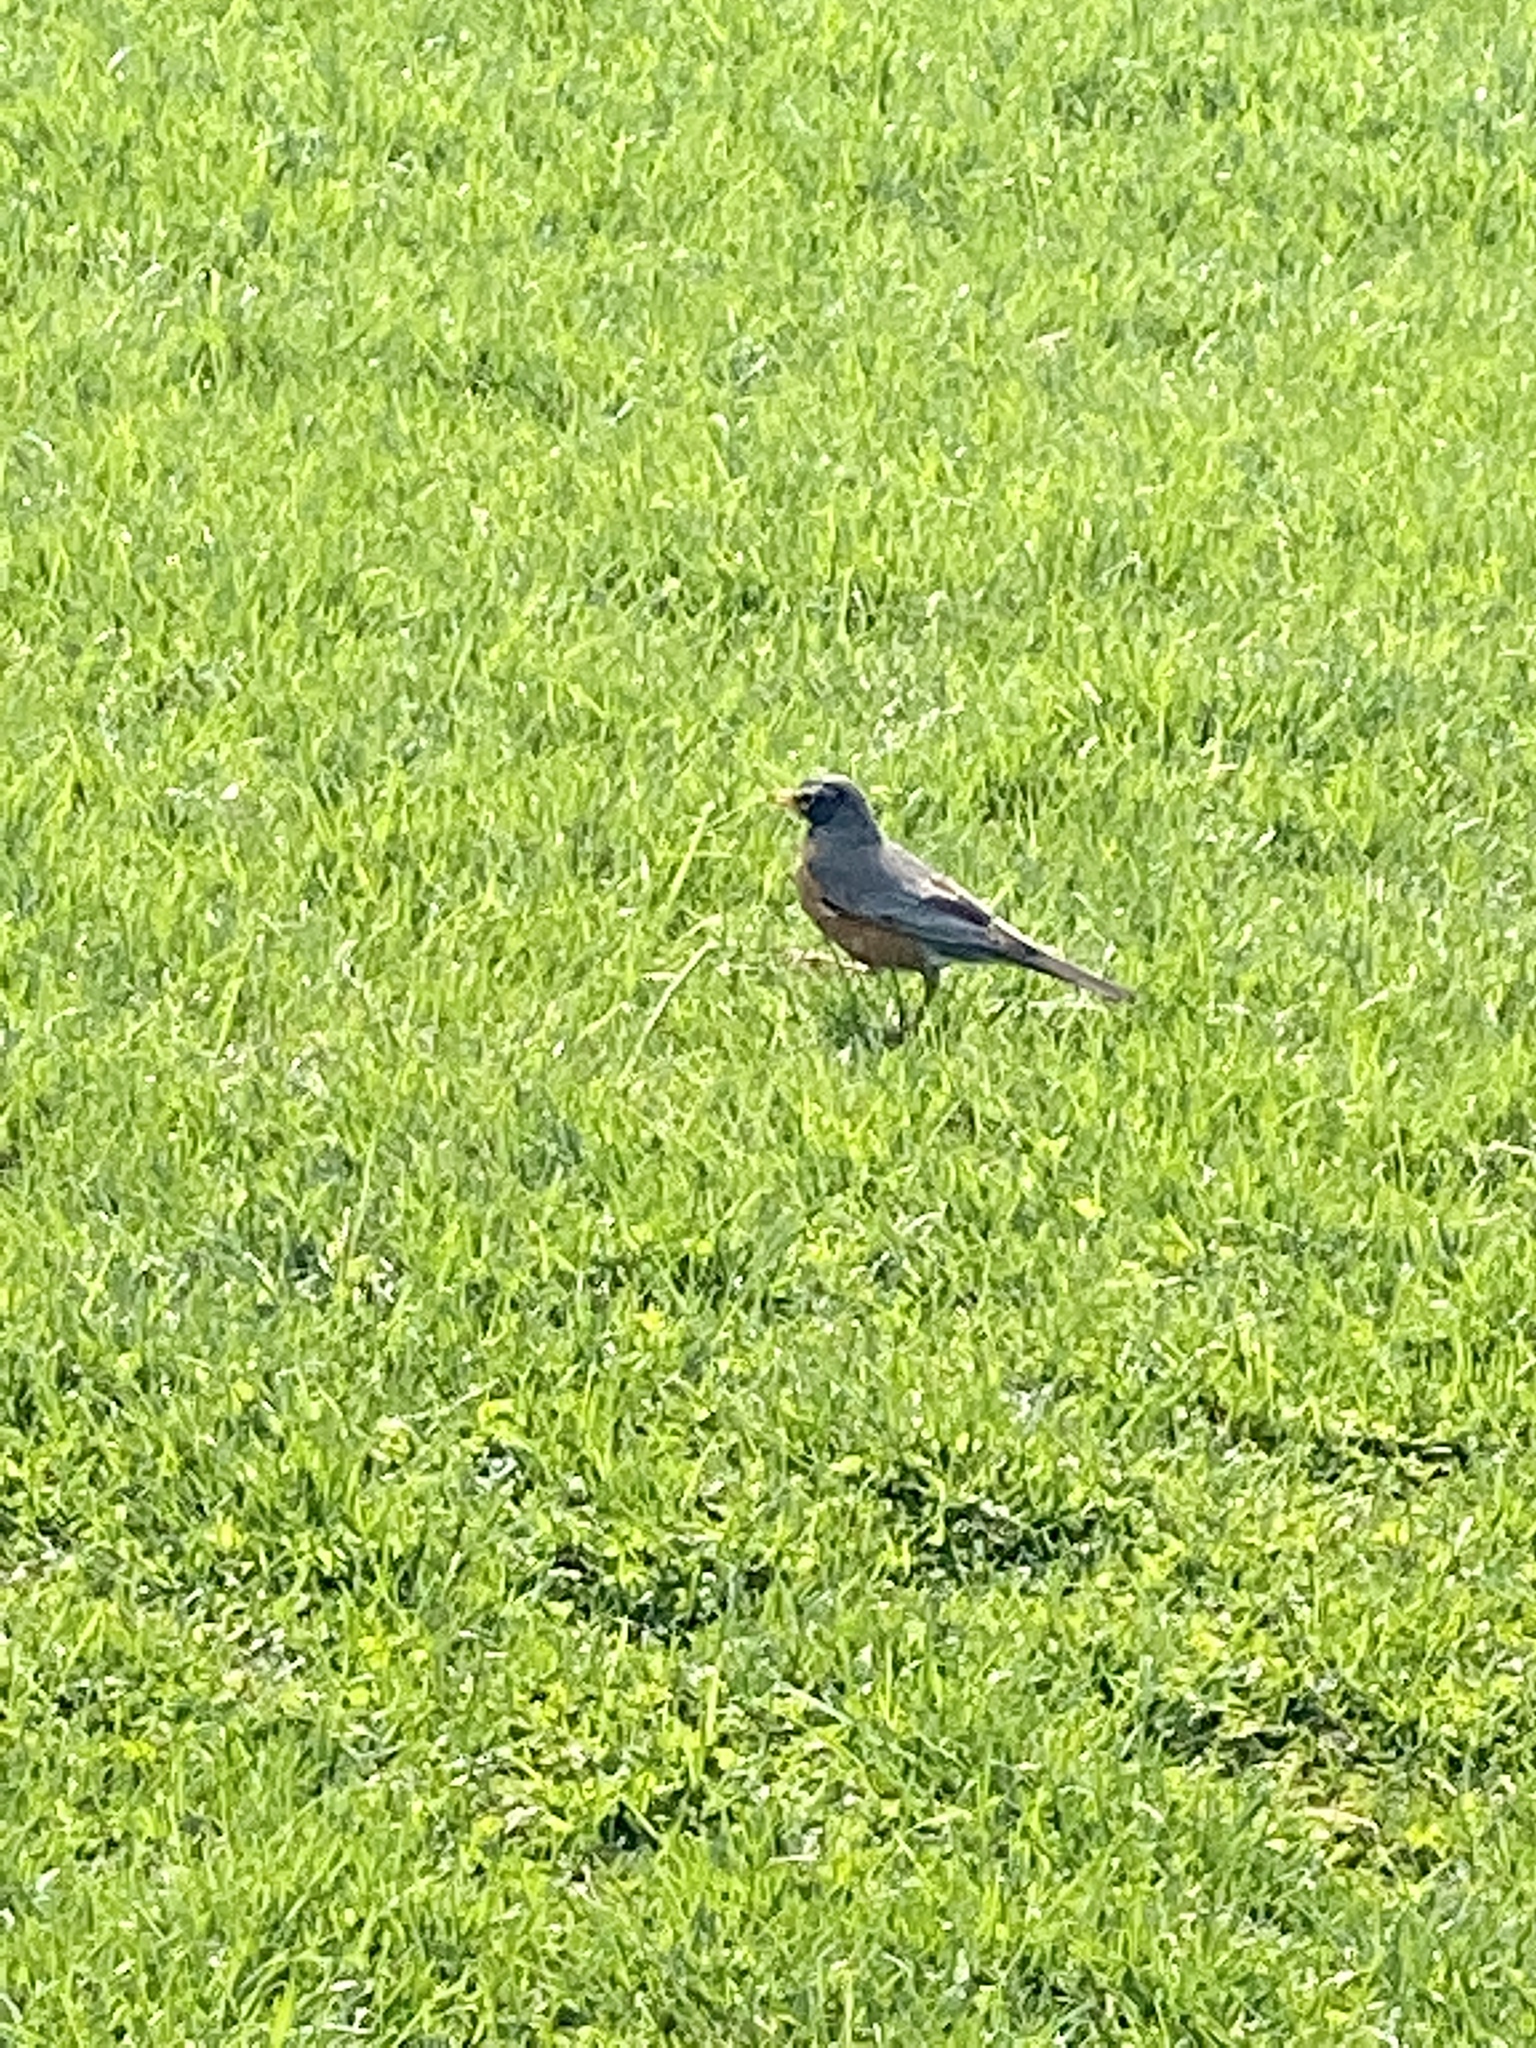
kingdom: Animalia
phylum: Chordata
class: Aves
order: Passeriformes
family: Turdidae
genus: Turdus
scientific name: Turdus migratorius
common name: American robin
